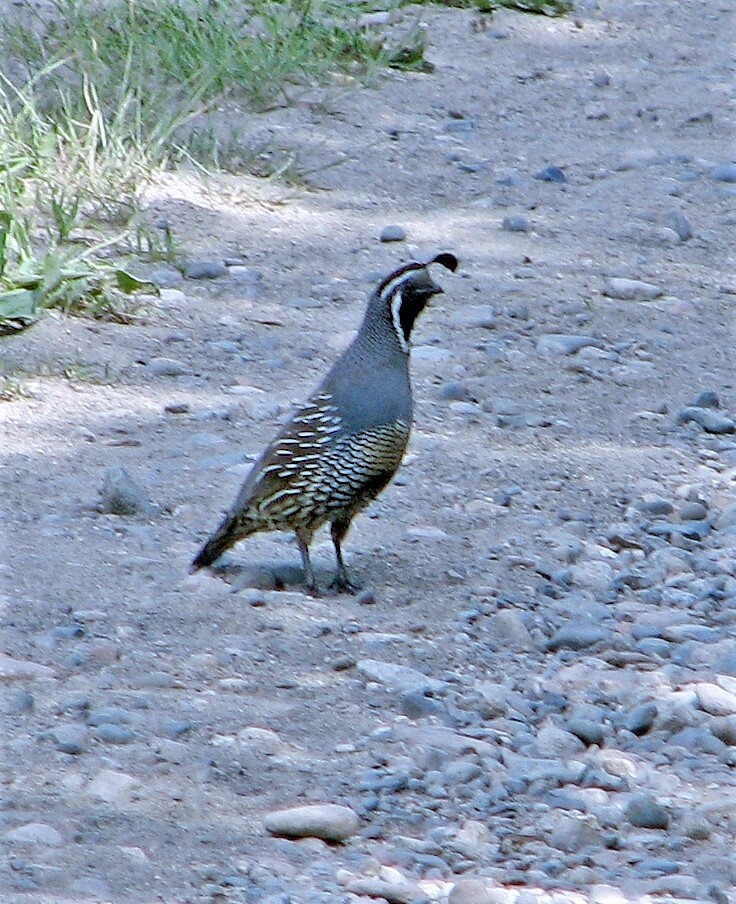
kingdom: Animalia
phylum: Chordata
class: Aves
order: Galliformes
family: Odontophoridae
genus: Callipepla
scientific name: Callipepla californica
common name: California quail
